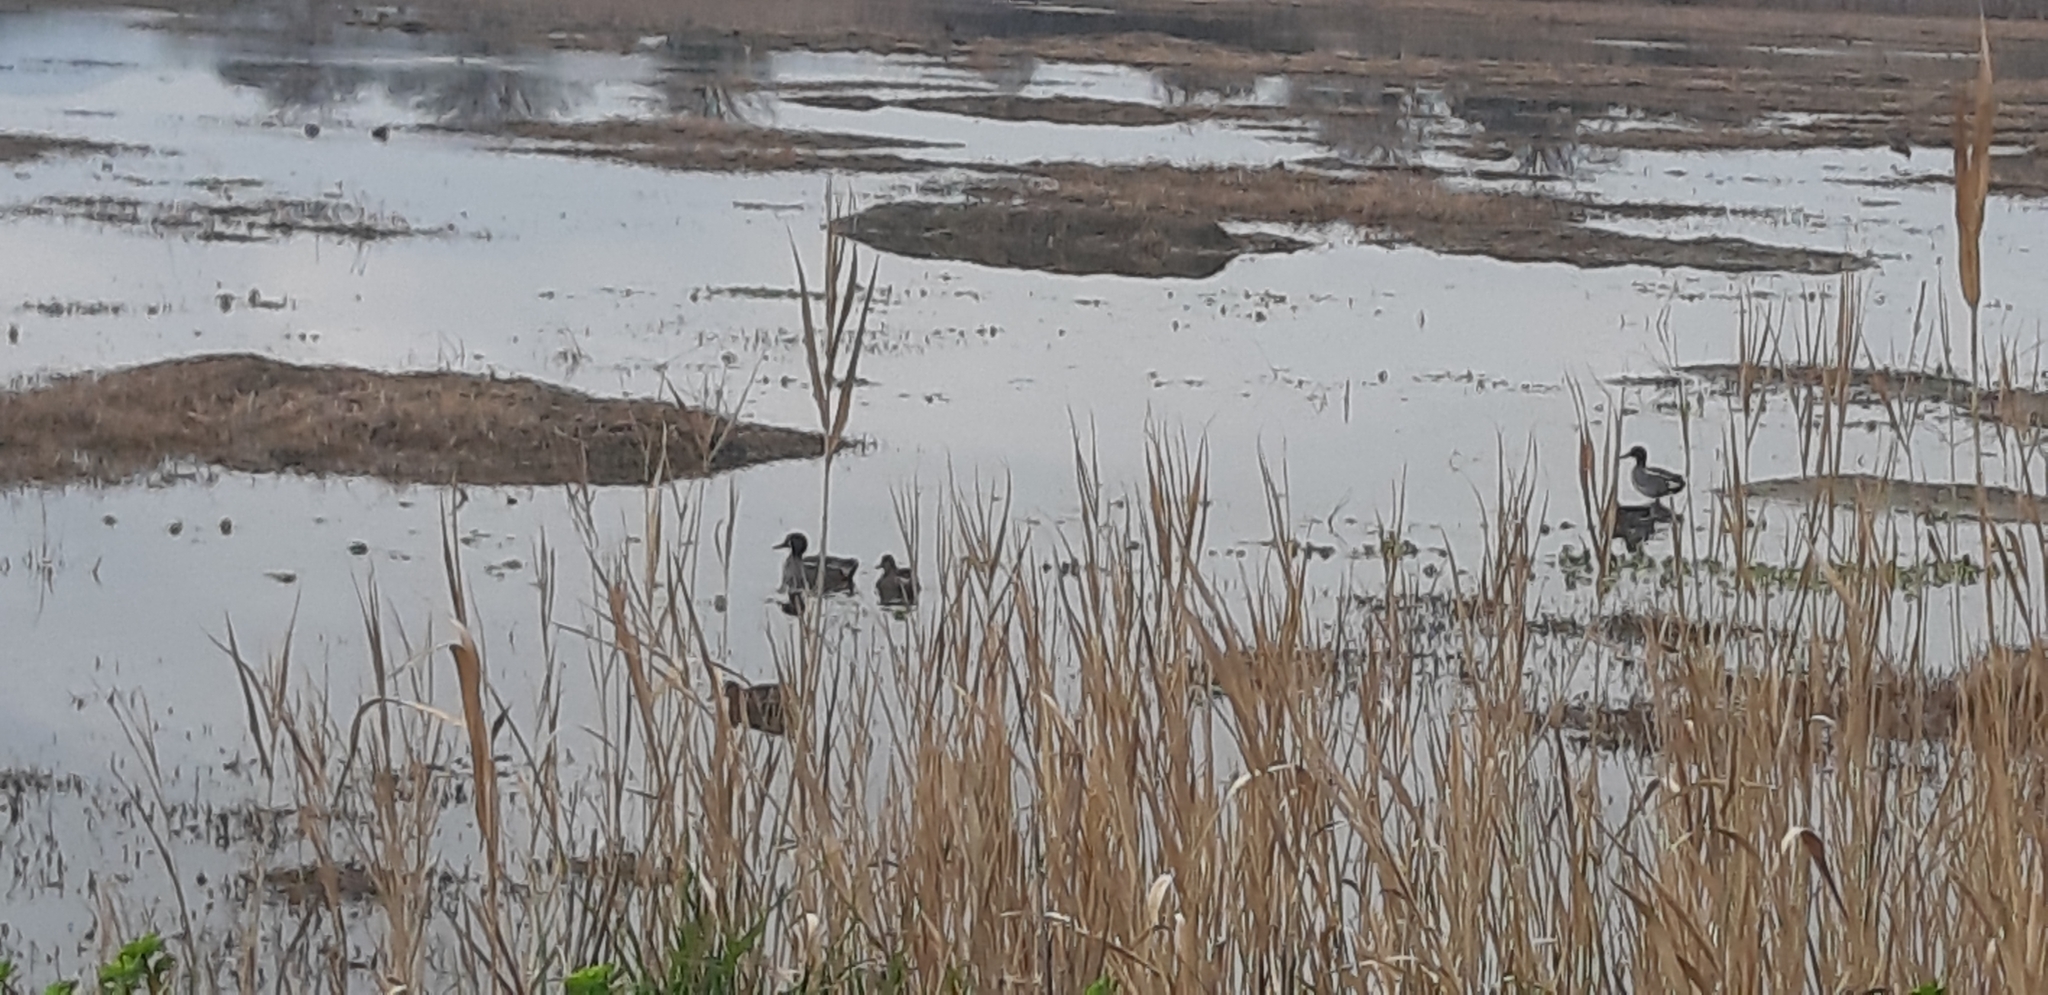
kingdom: Animalia
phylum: Chordata
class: Aves
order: Anseriformes
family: Anatidae
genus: Anas
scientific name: Anas crecca
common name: Eurasian teal
